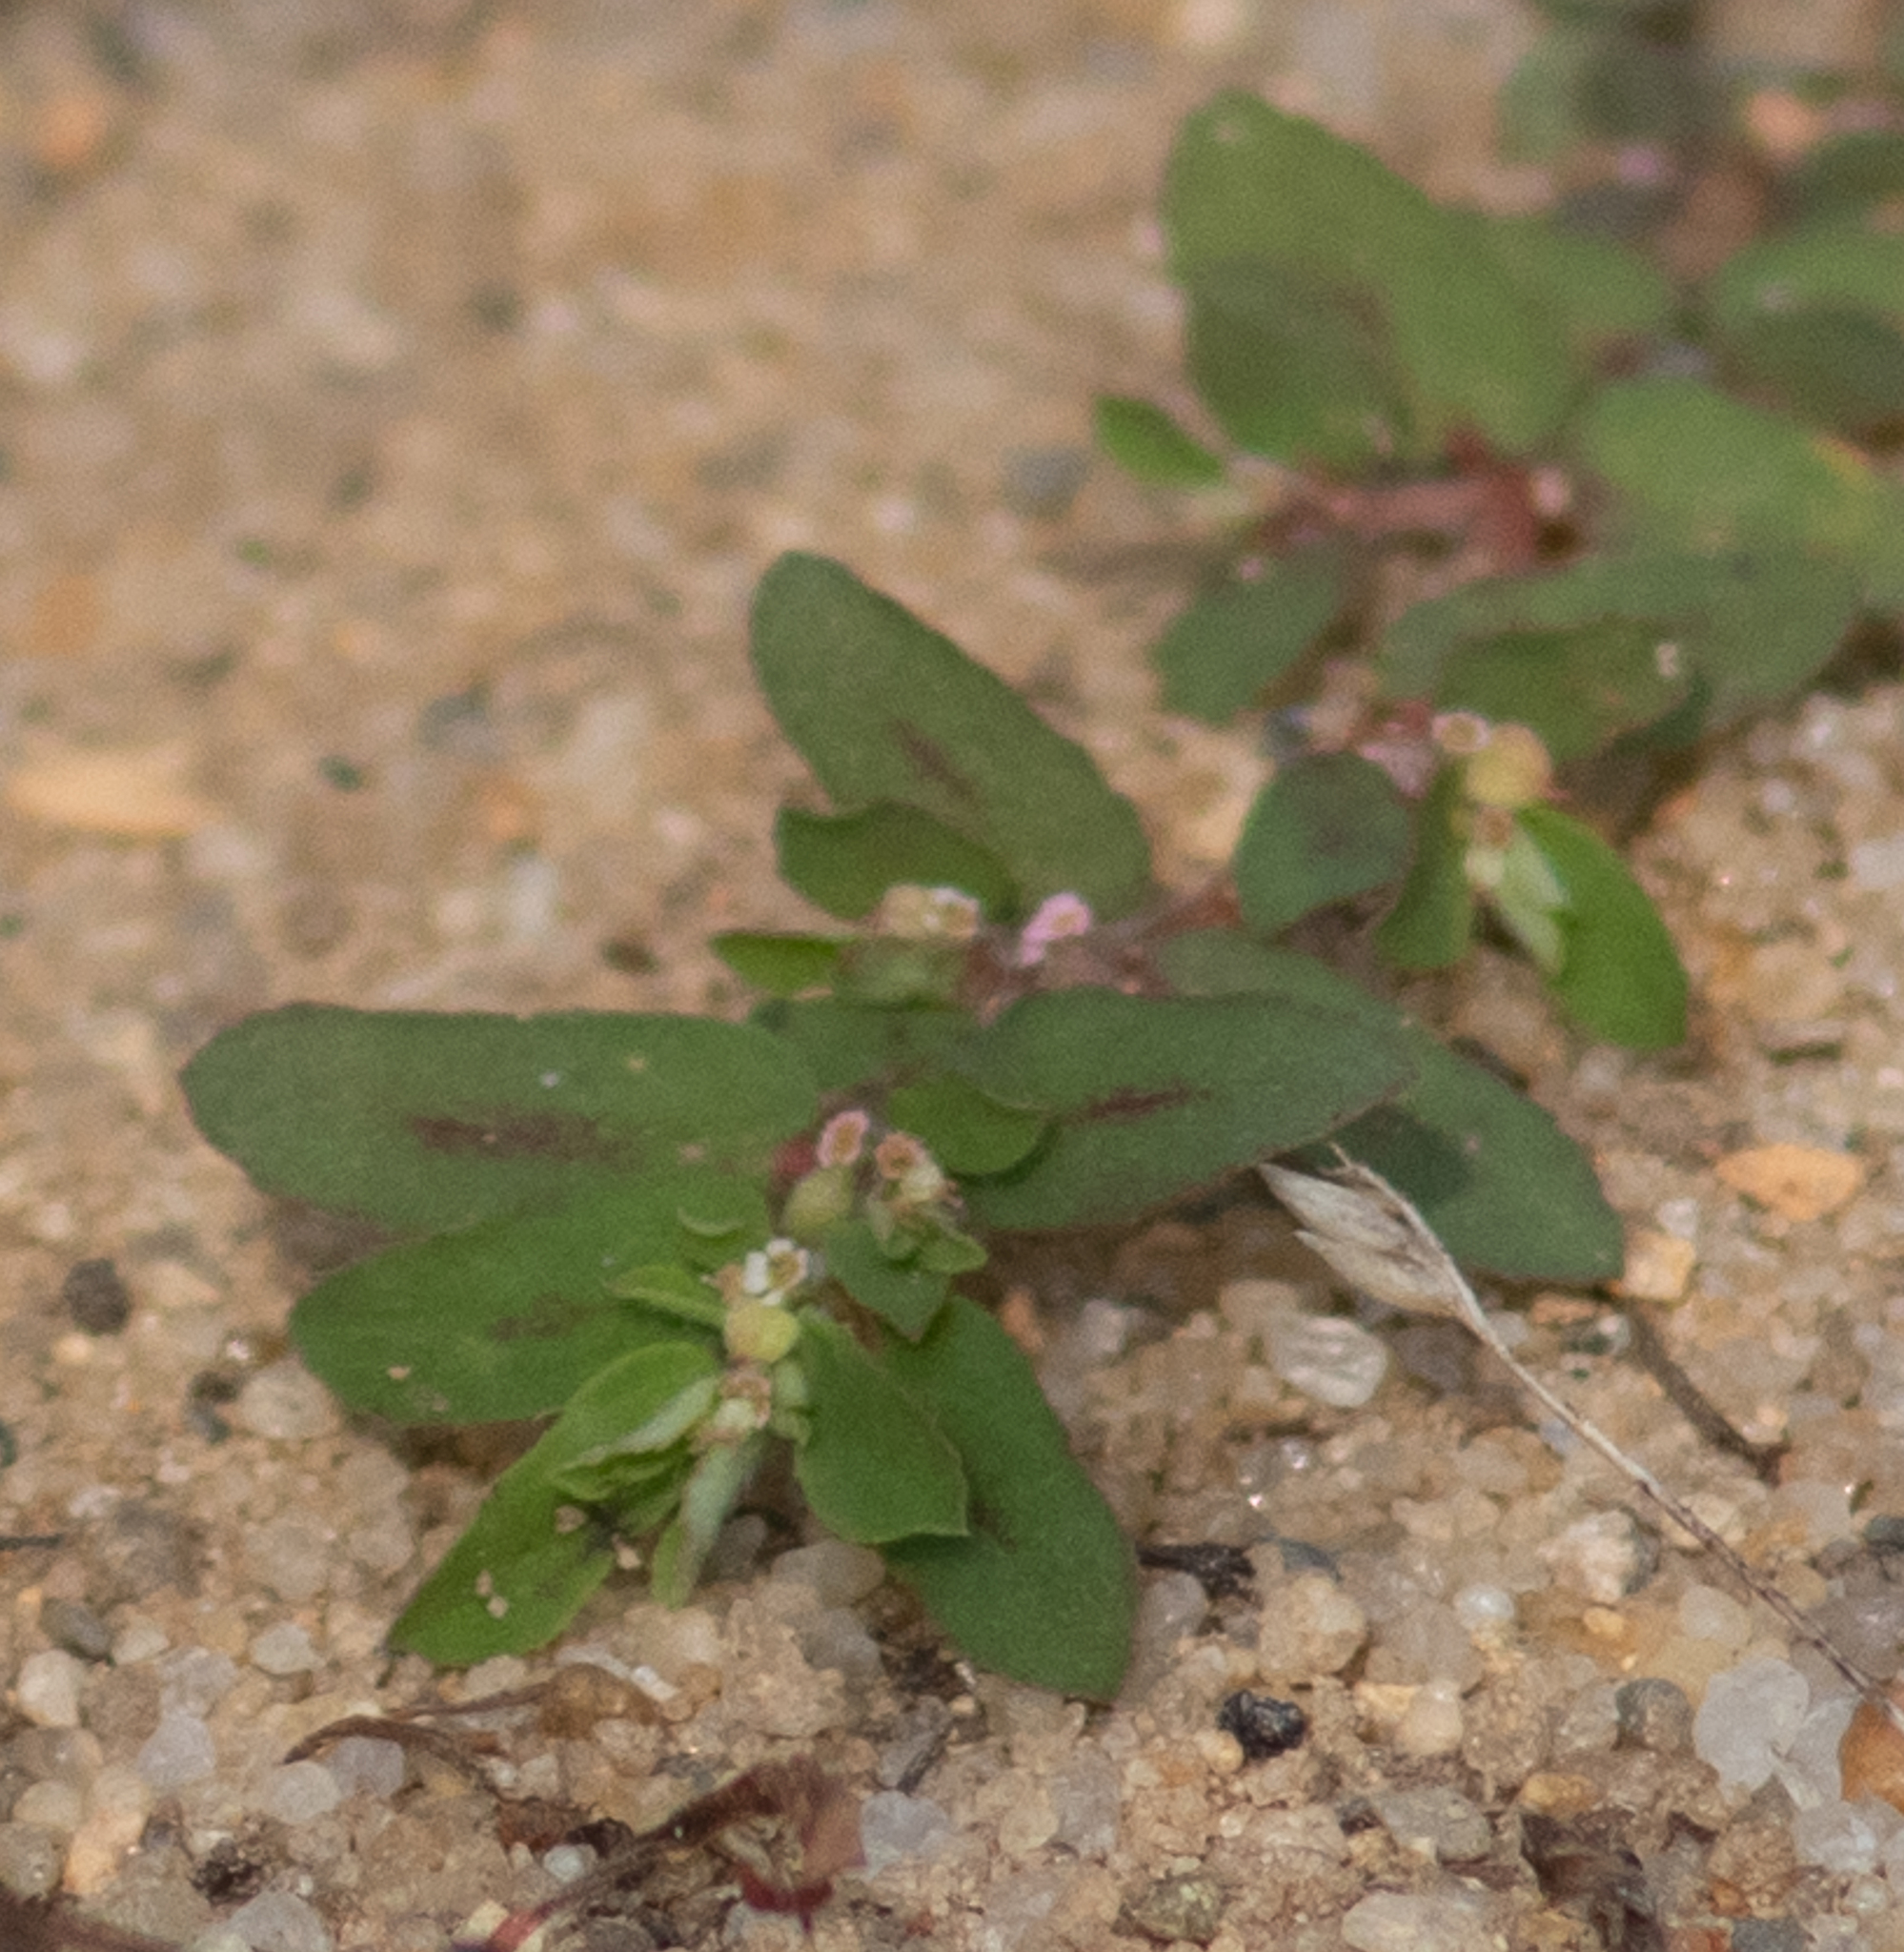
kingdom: Plantae
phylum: Tracheophyta
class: Magnoliopsida
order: Malpighiales
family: Euphorbiaceae
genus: Euphorbia
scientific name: Euphorbia maculata
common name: Spotted spurge
